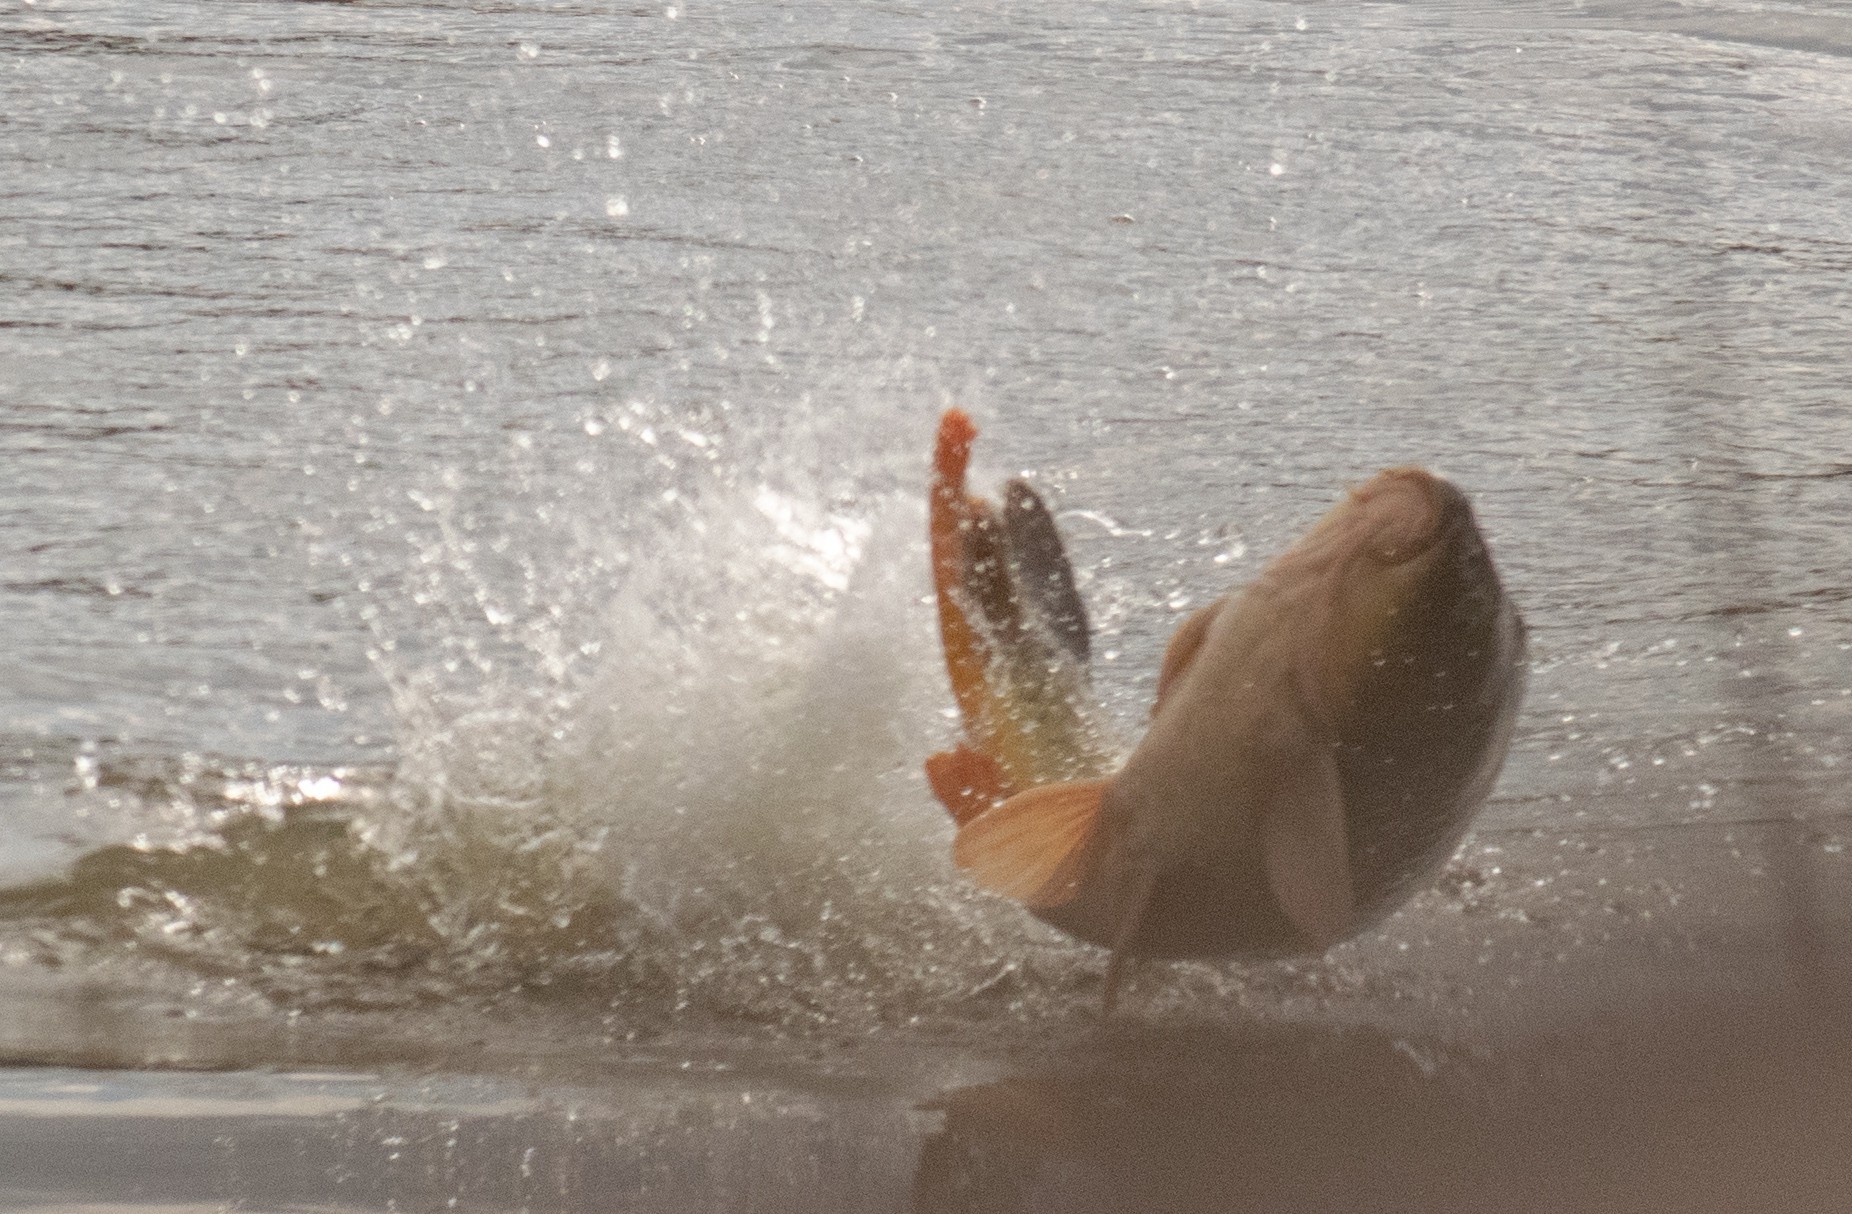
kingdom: Animalia
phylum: Chordata
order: Cypriniformes
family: Cyprinidae
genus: Cyprinus
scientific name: Cyprinus carpio
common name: Common carp
